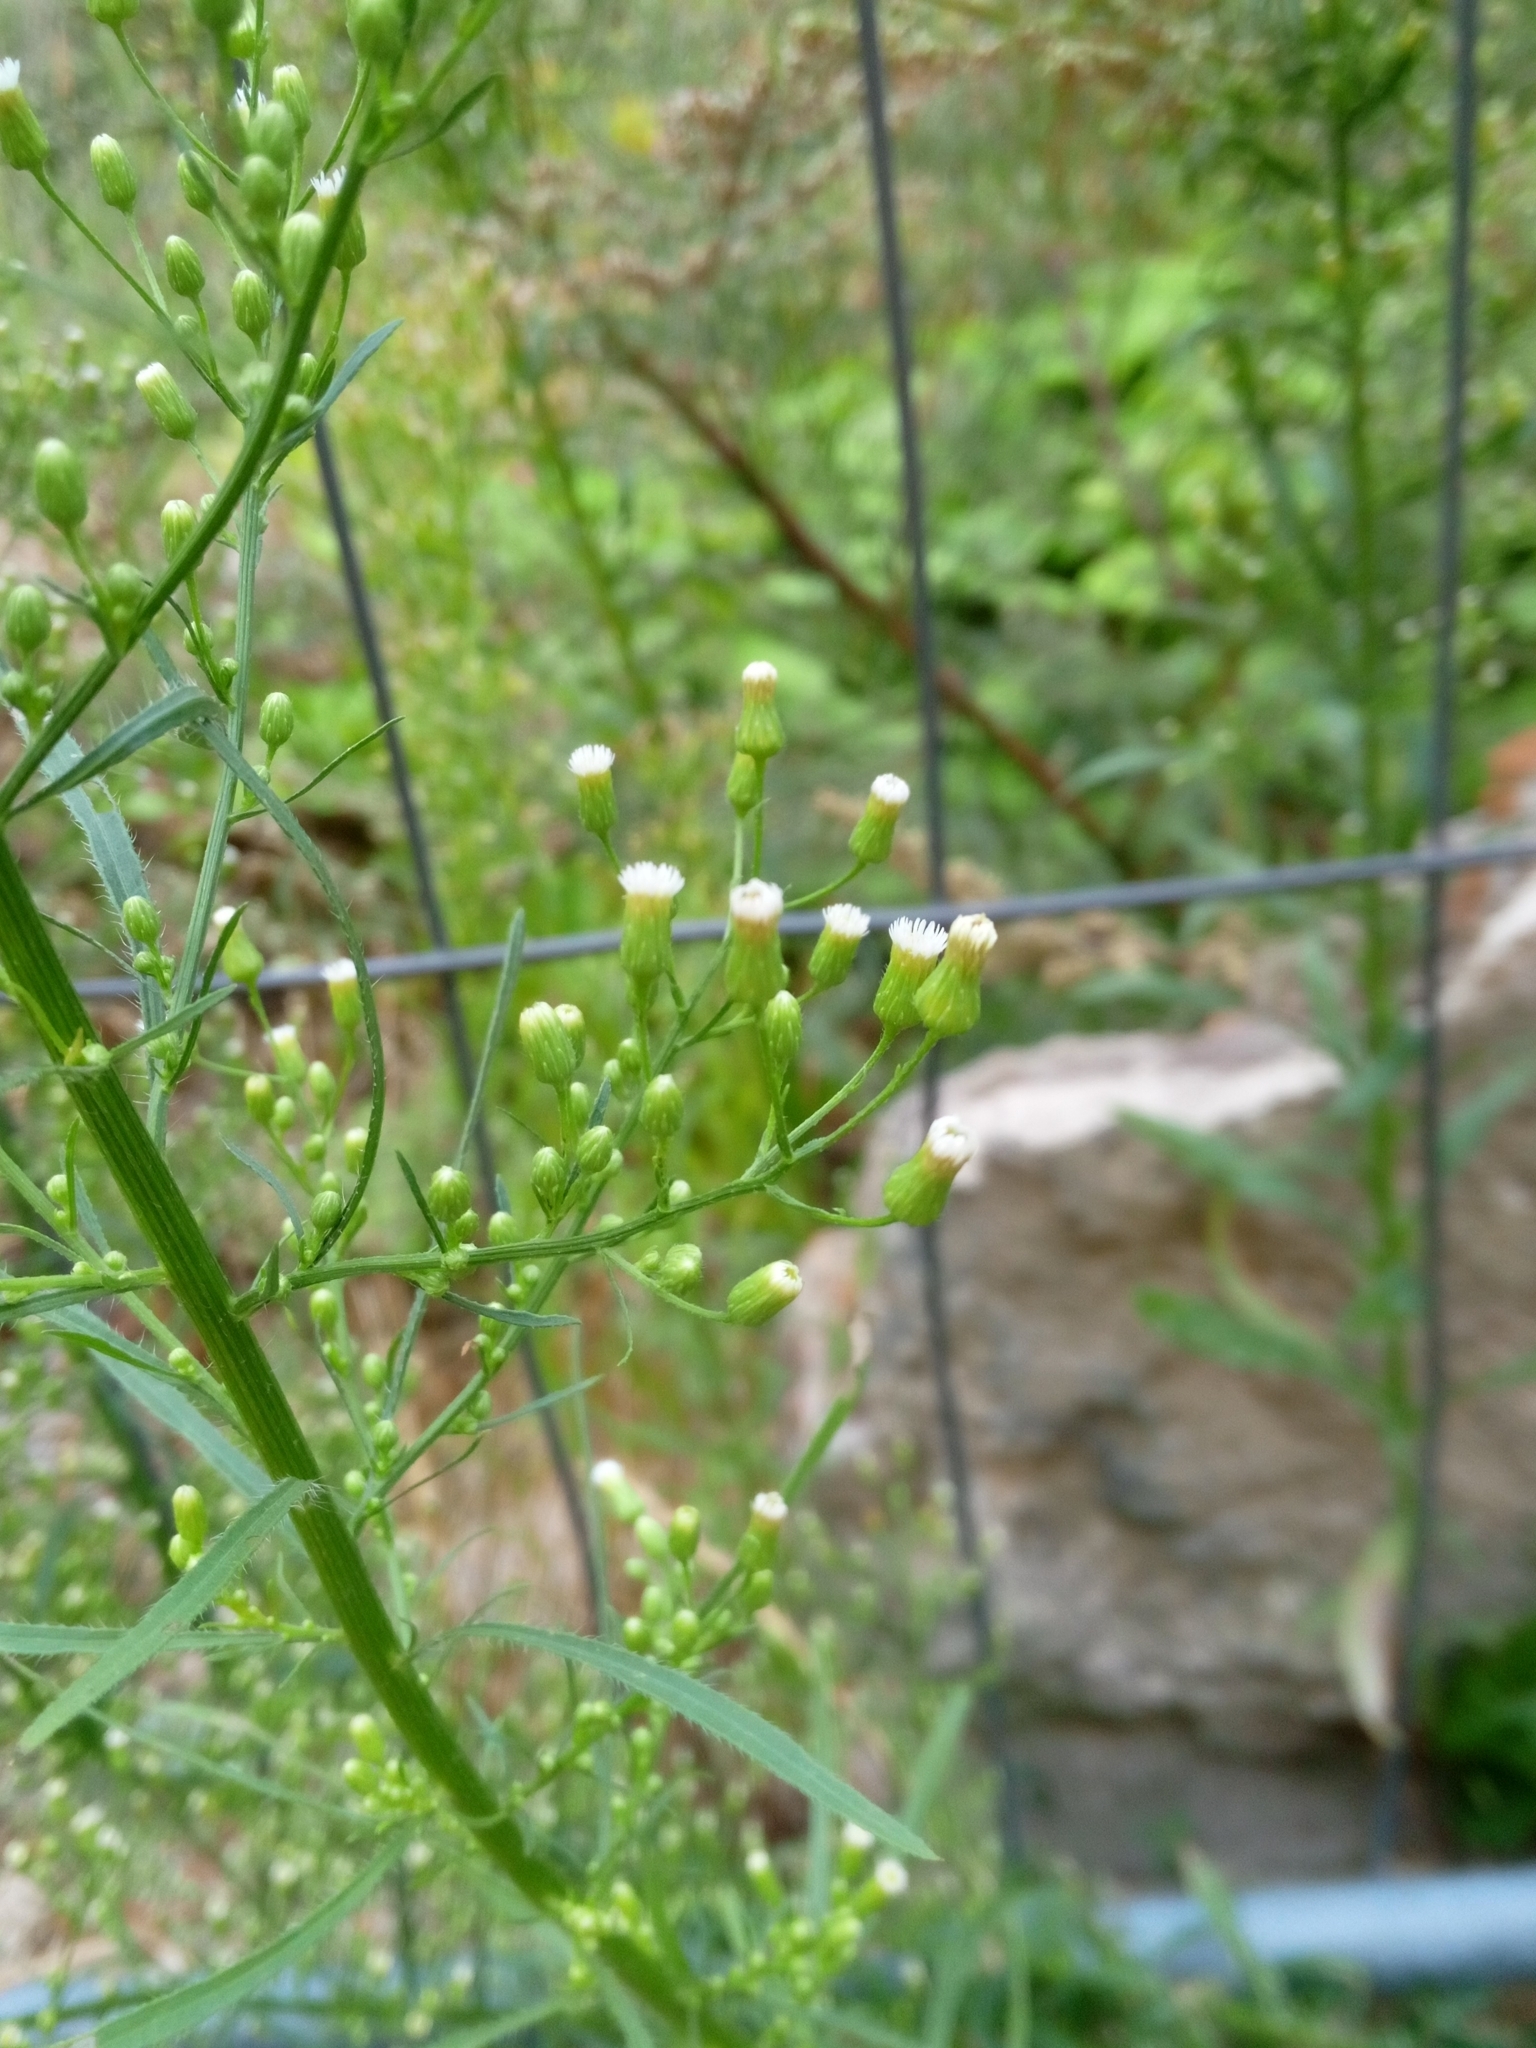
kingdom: Plantae
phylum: Tracheophyta
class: Magnoliopsida
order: Asterales
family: Asteraceae
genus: Erigeron
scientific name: Erigeron canadensis
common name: Canadian fleabane
